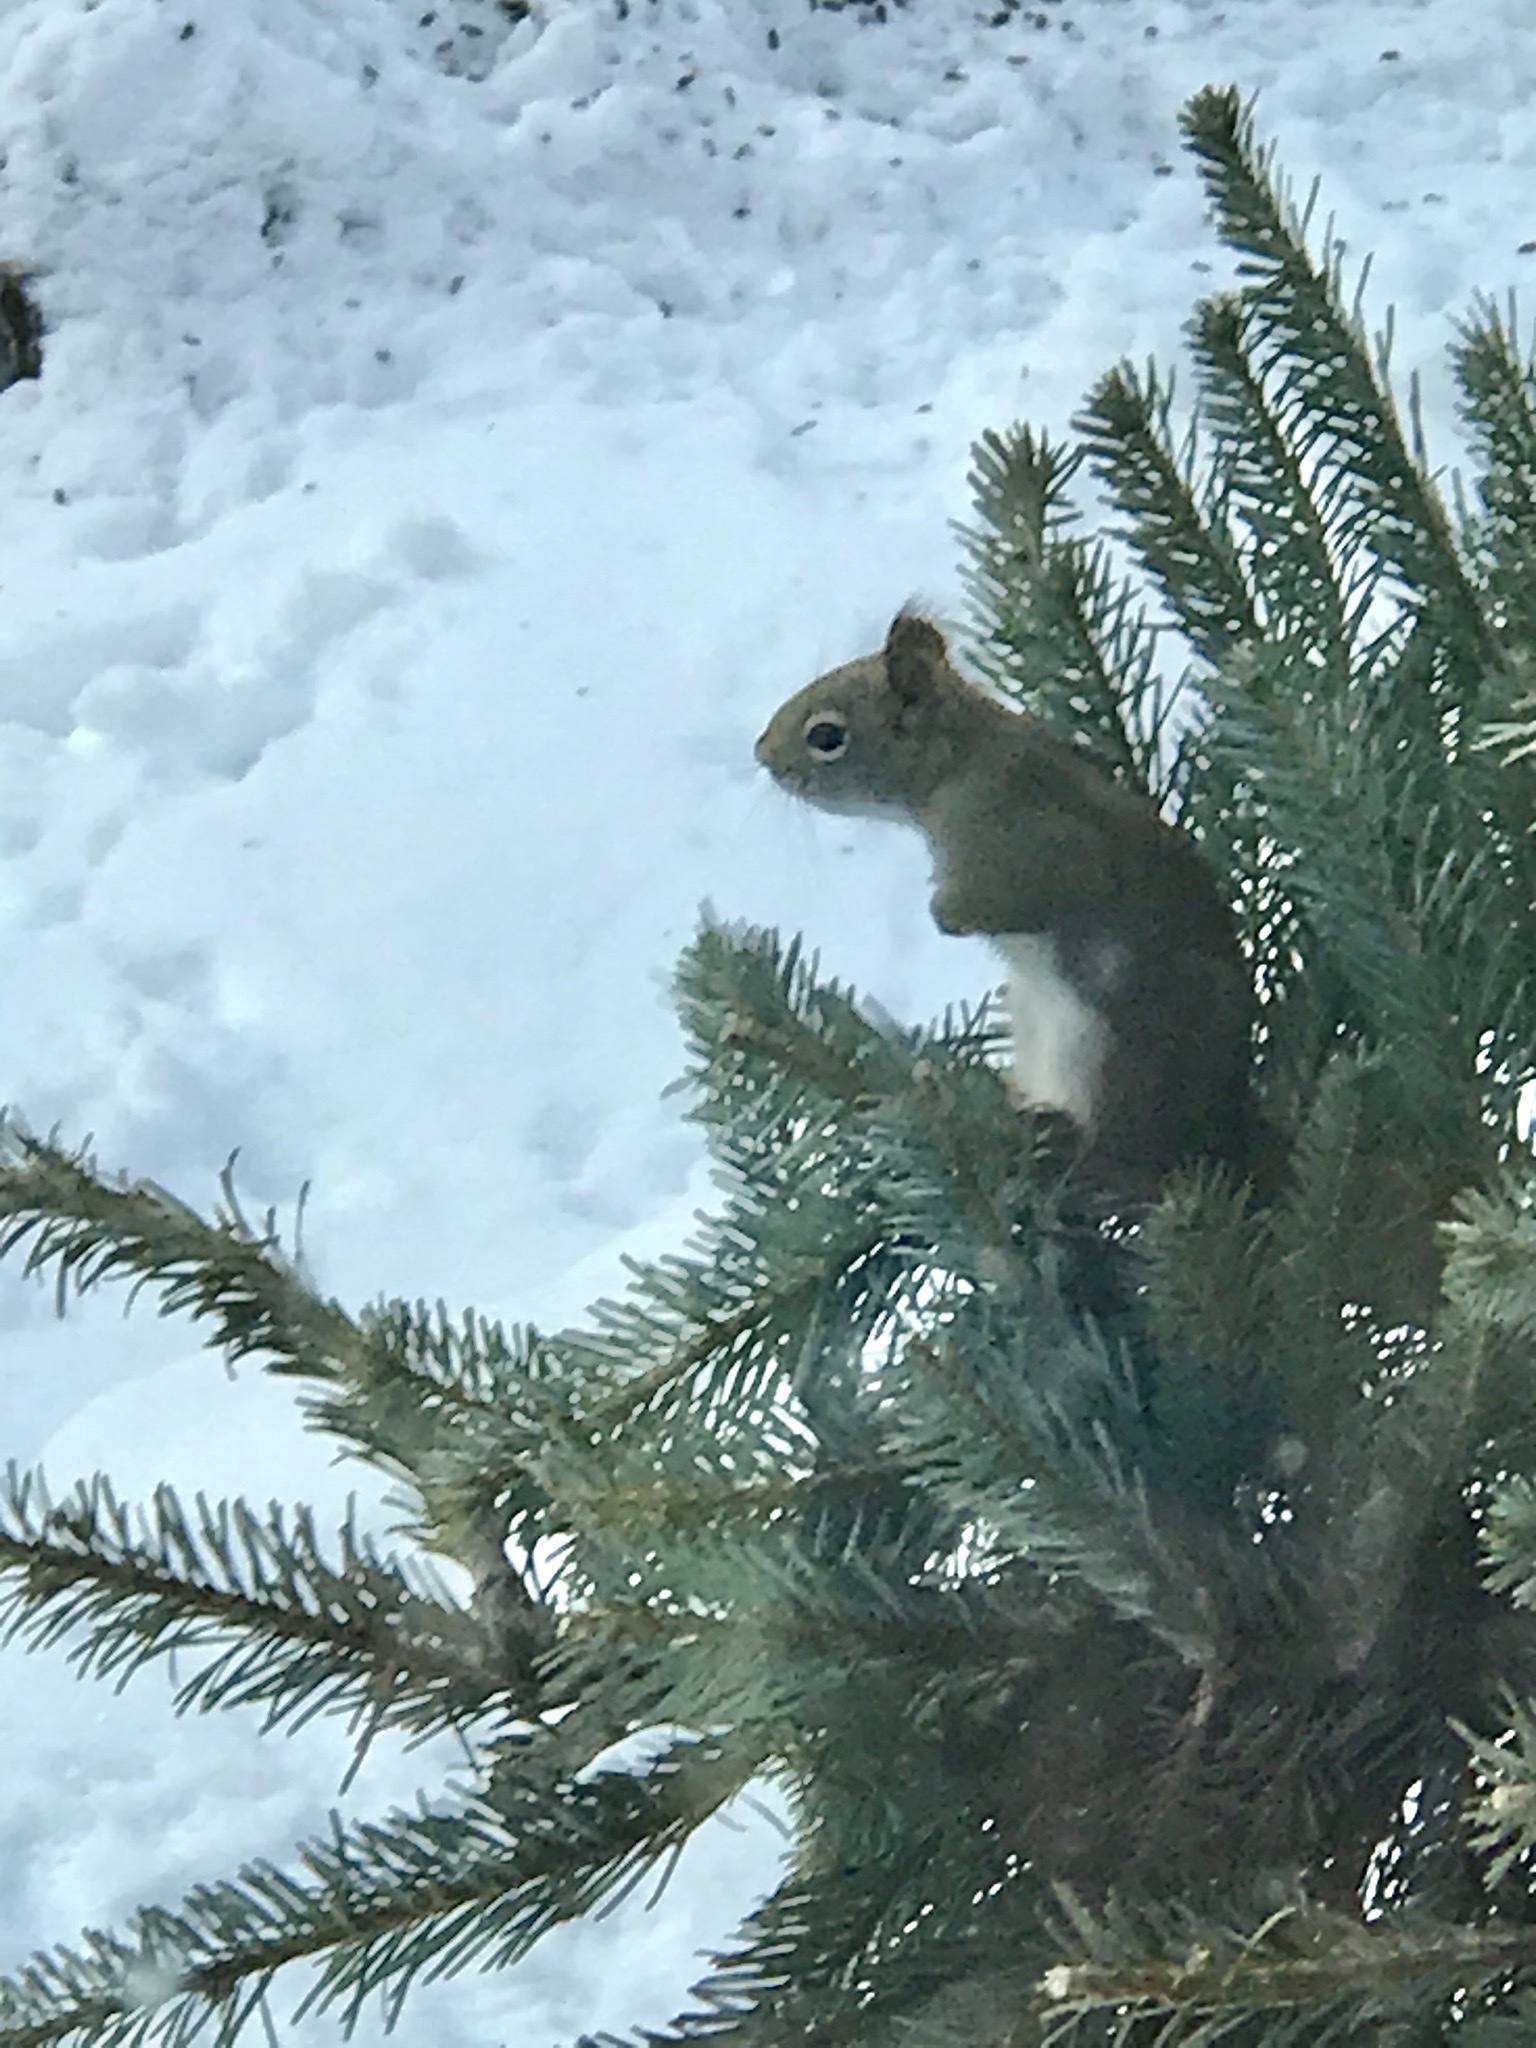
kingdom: Animalia
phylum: Chordata
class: Mammalia
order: Rodentia
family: Sciuridae
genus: Tamiasciurus
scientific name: Tamiasciurus hudsonicus
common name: Red squirrel
